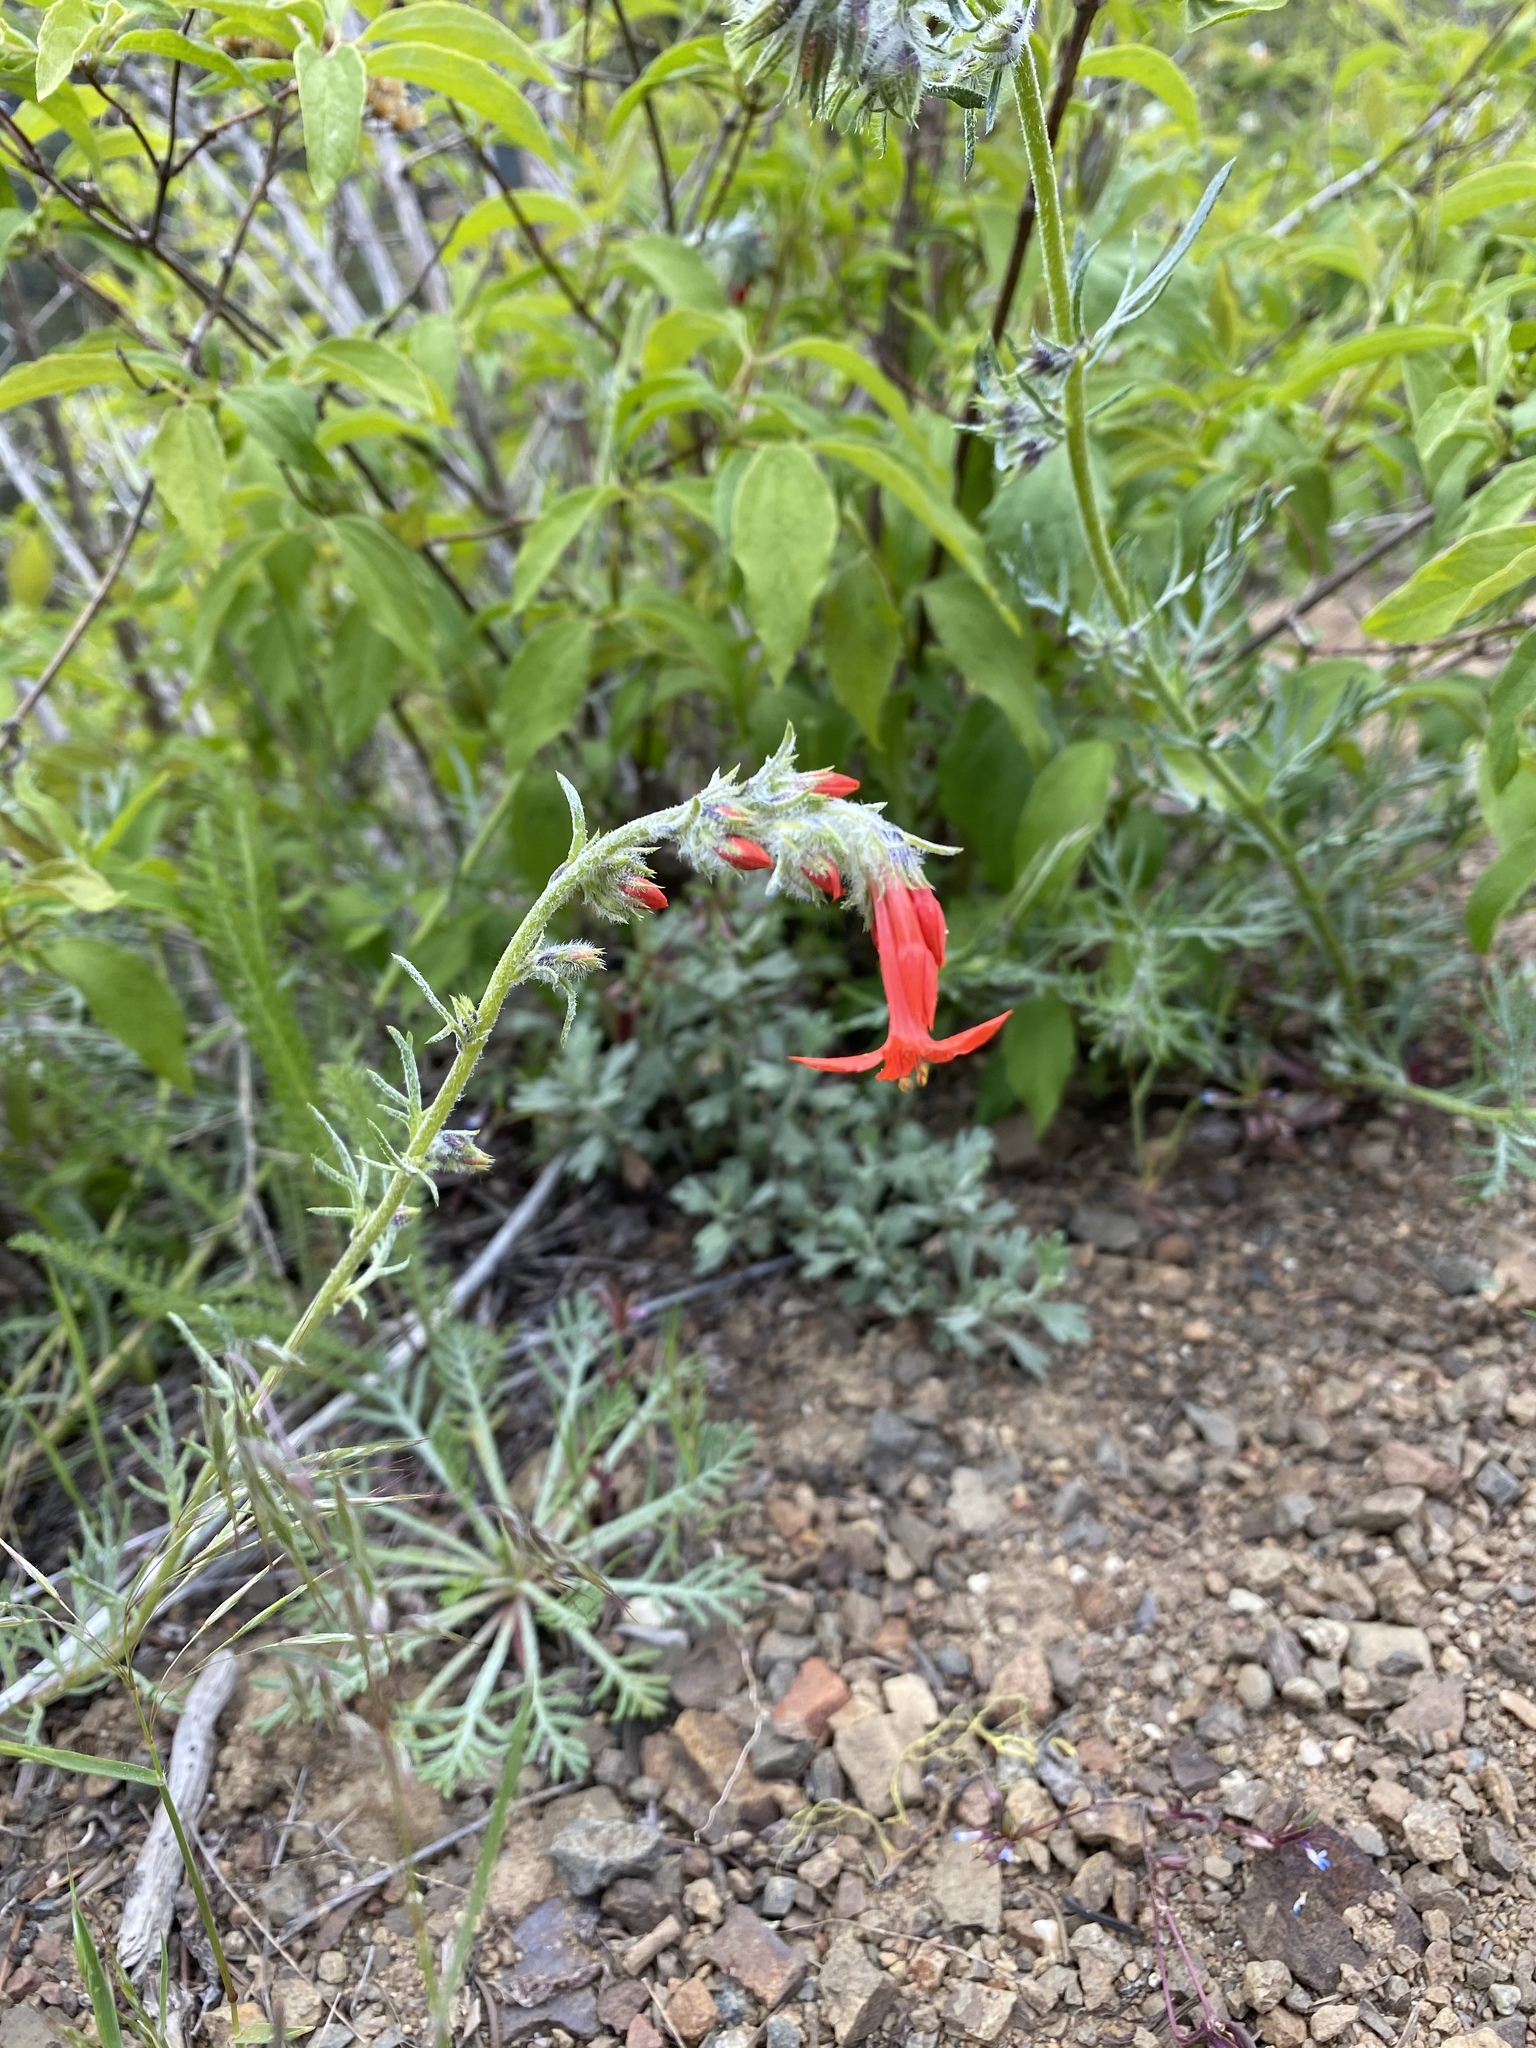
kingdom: Plantae
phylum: Tracheophyta
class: Magnoliopsida
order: Ericales
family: Polemoniaceae
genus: Ipomopsis
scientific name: Ipomopsis aggregata
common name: Scarlet gilia
